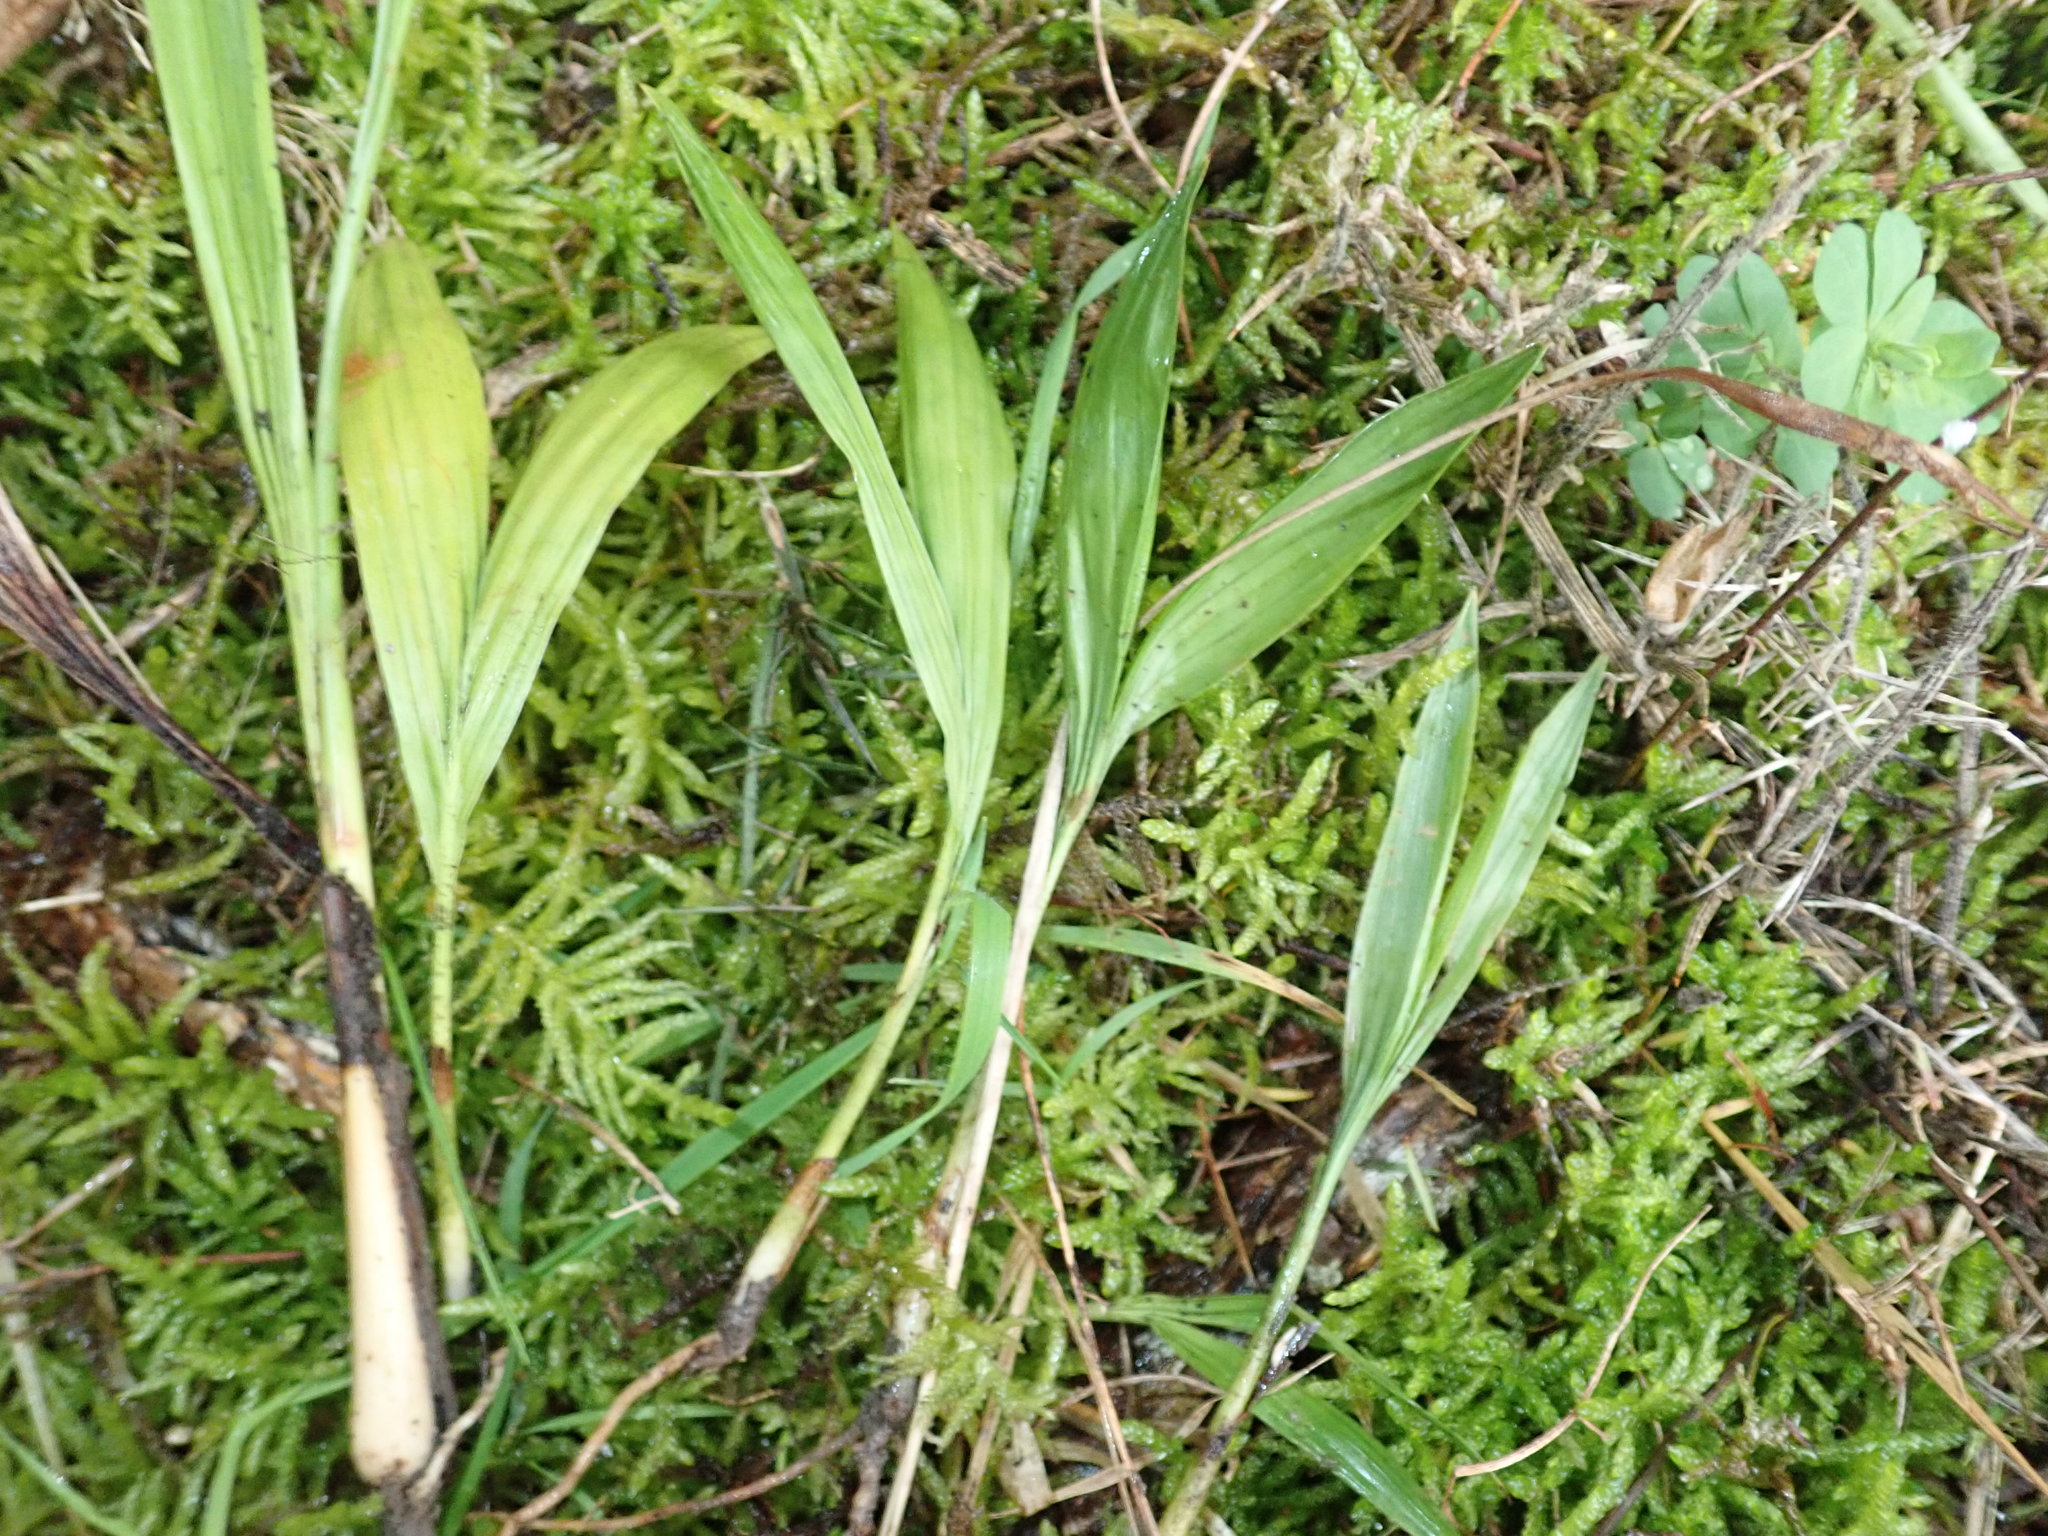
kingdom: Plantae
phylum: Tracheophyta
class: Liliopsida
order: Arecales
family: Arecaceae
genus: Archontophoenix
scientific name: Archontophoenix cunninghamiana
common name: Piccabeen bangalow palm
